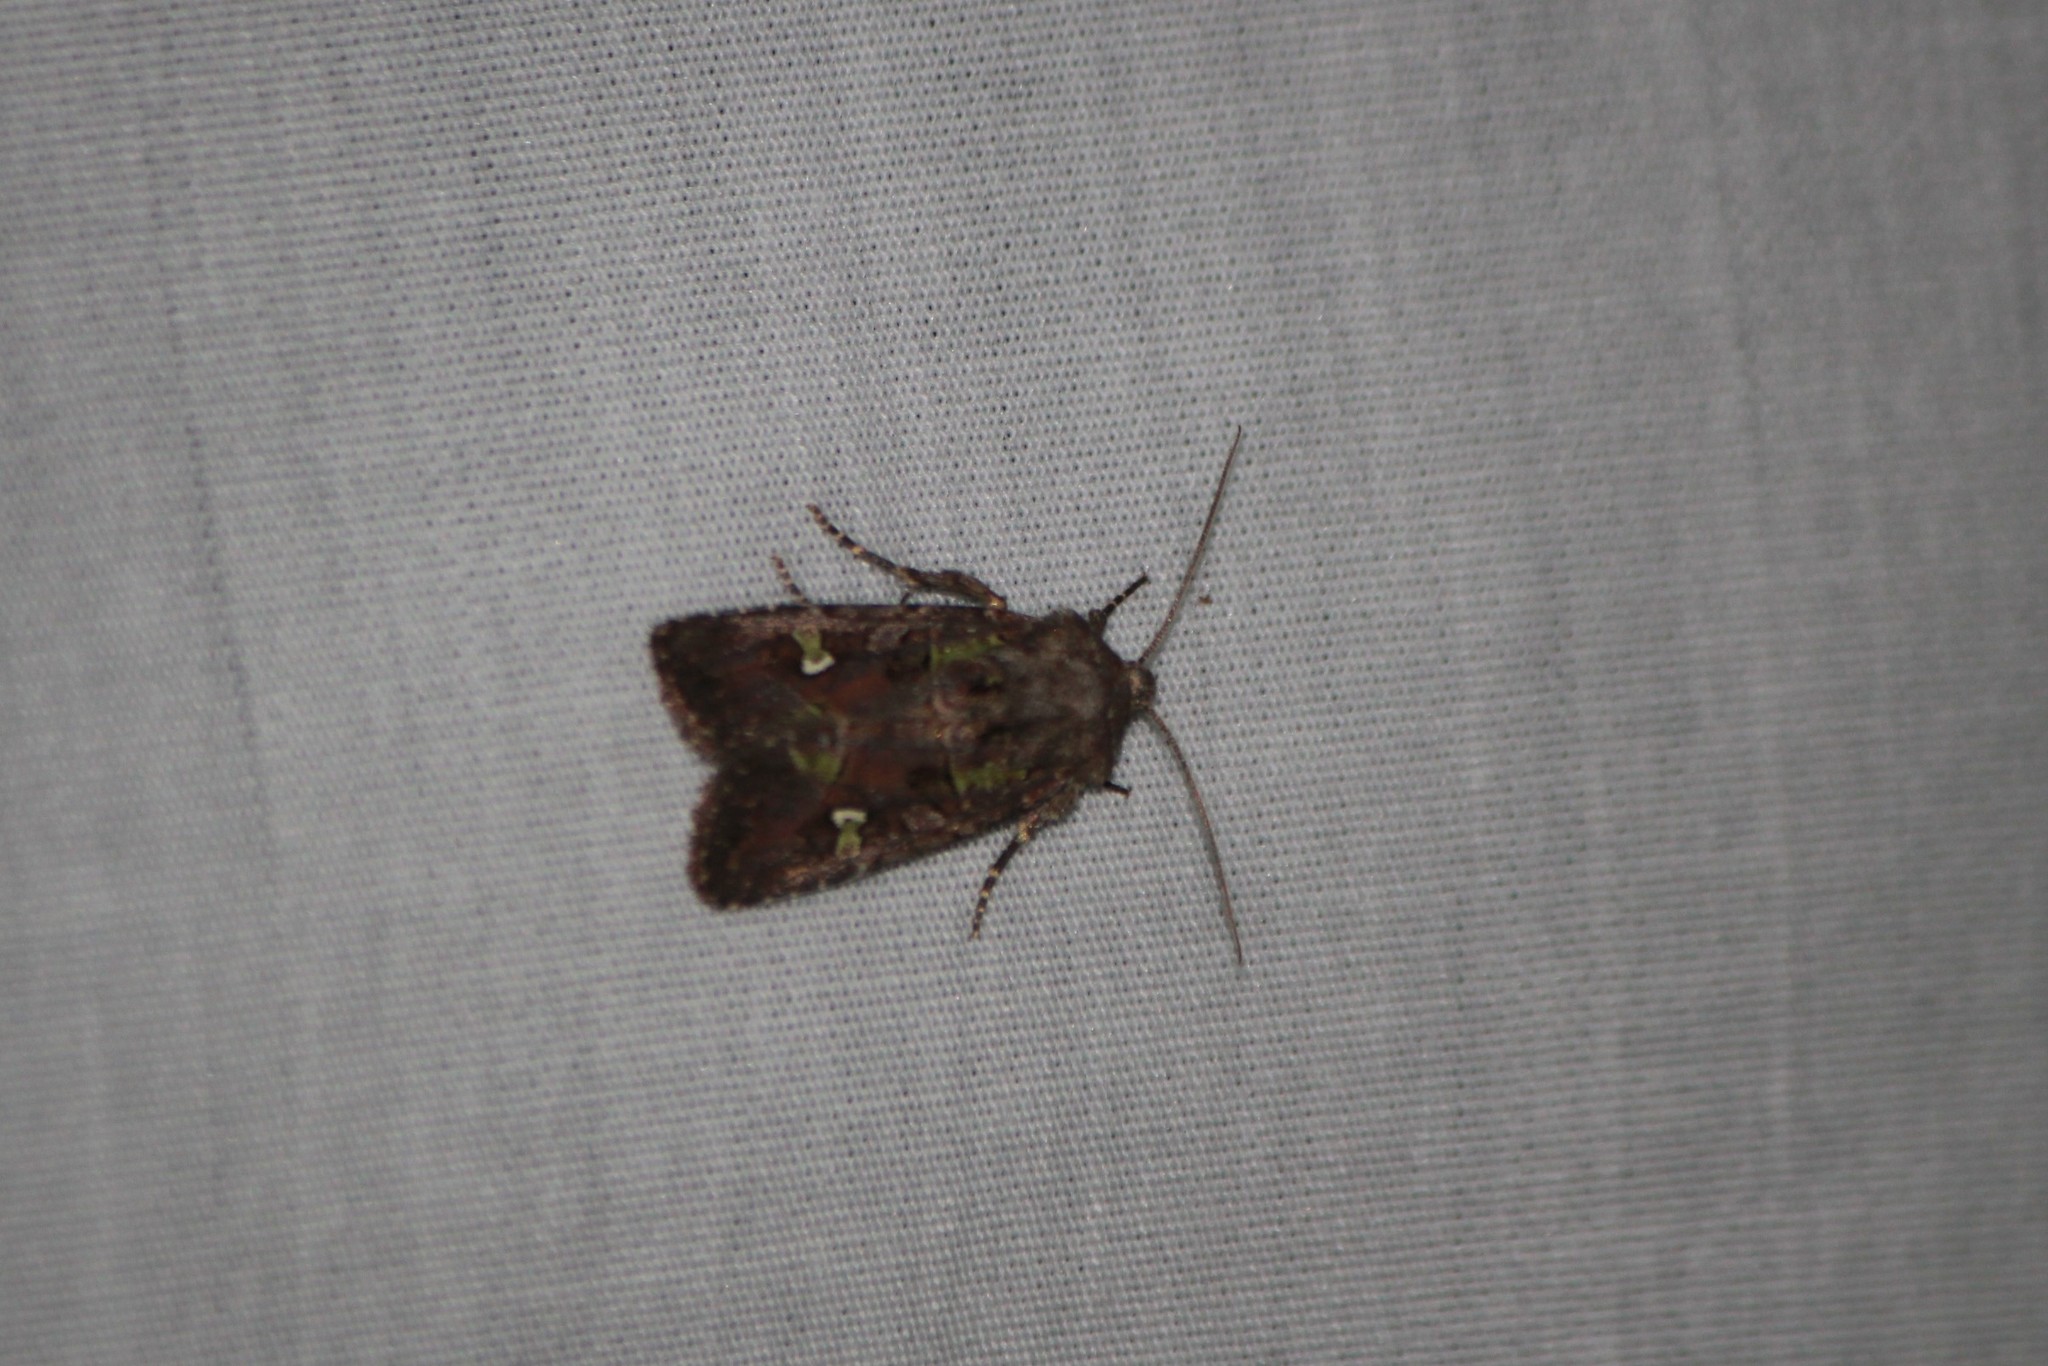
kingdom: Animalia
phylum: Arthropoda
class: Insecta
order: Lepidoptera
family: Noctuidae
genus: Lacinipolia
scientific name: Lacinipolia renigera
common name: Kidney-spotted minor
